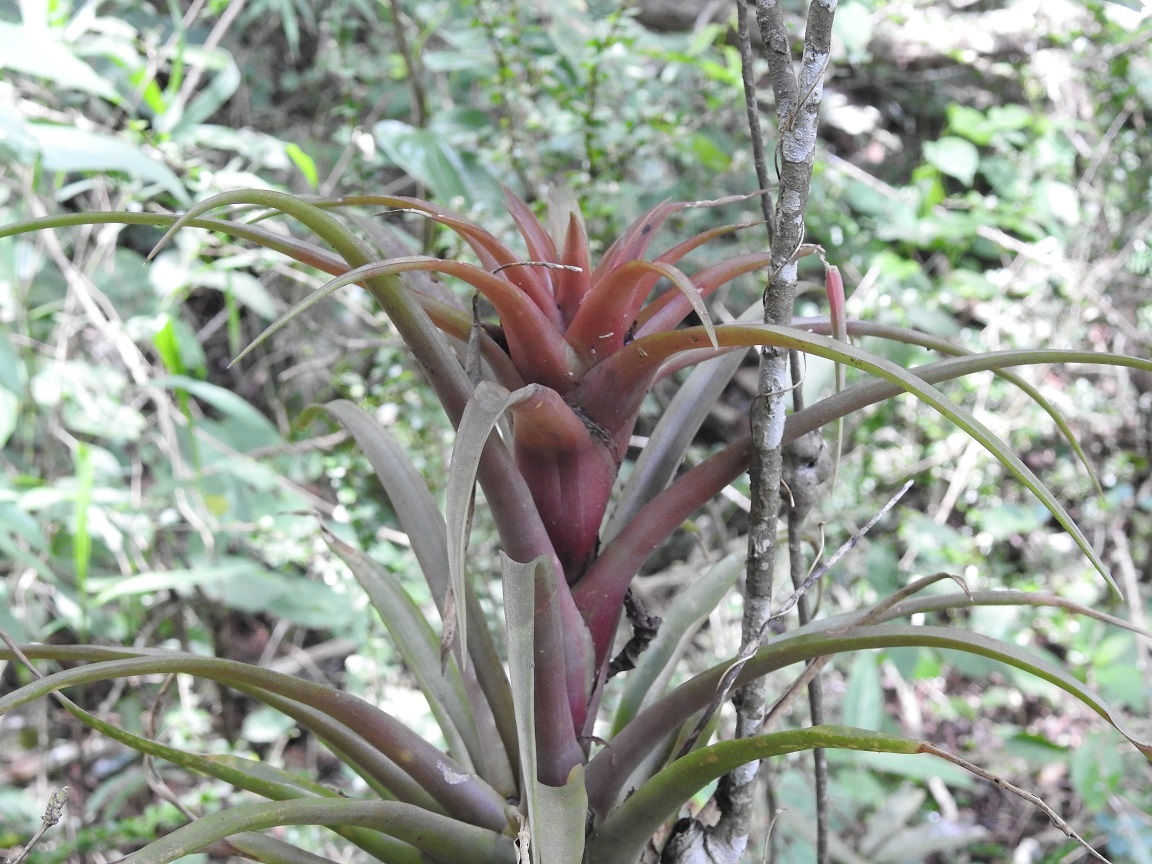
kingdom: Plantae
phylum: Tracheophyta
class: Liliopsida
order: Poales
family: Bromeliaceae
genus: Tillandsia
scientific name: Tillandsia capitata
